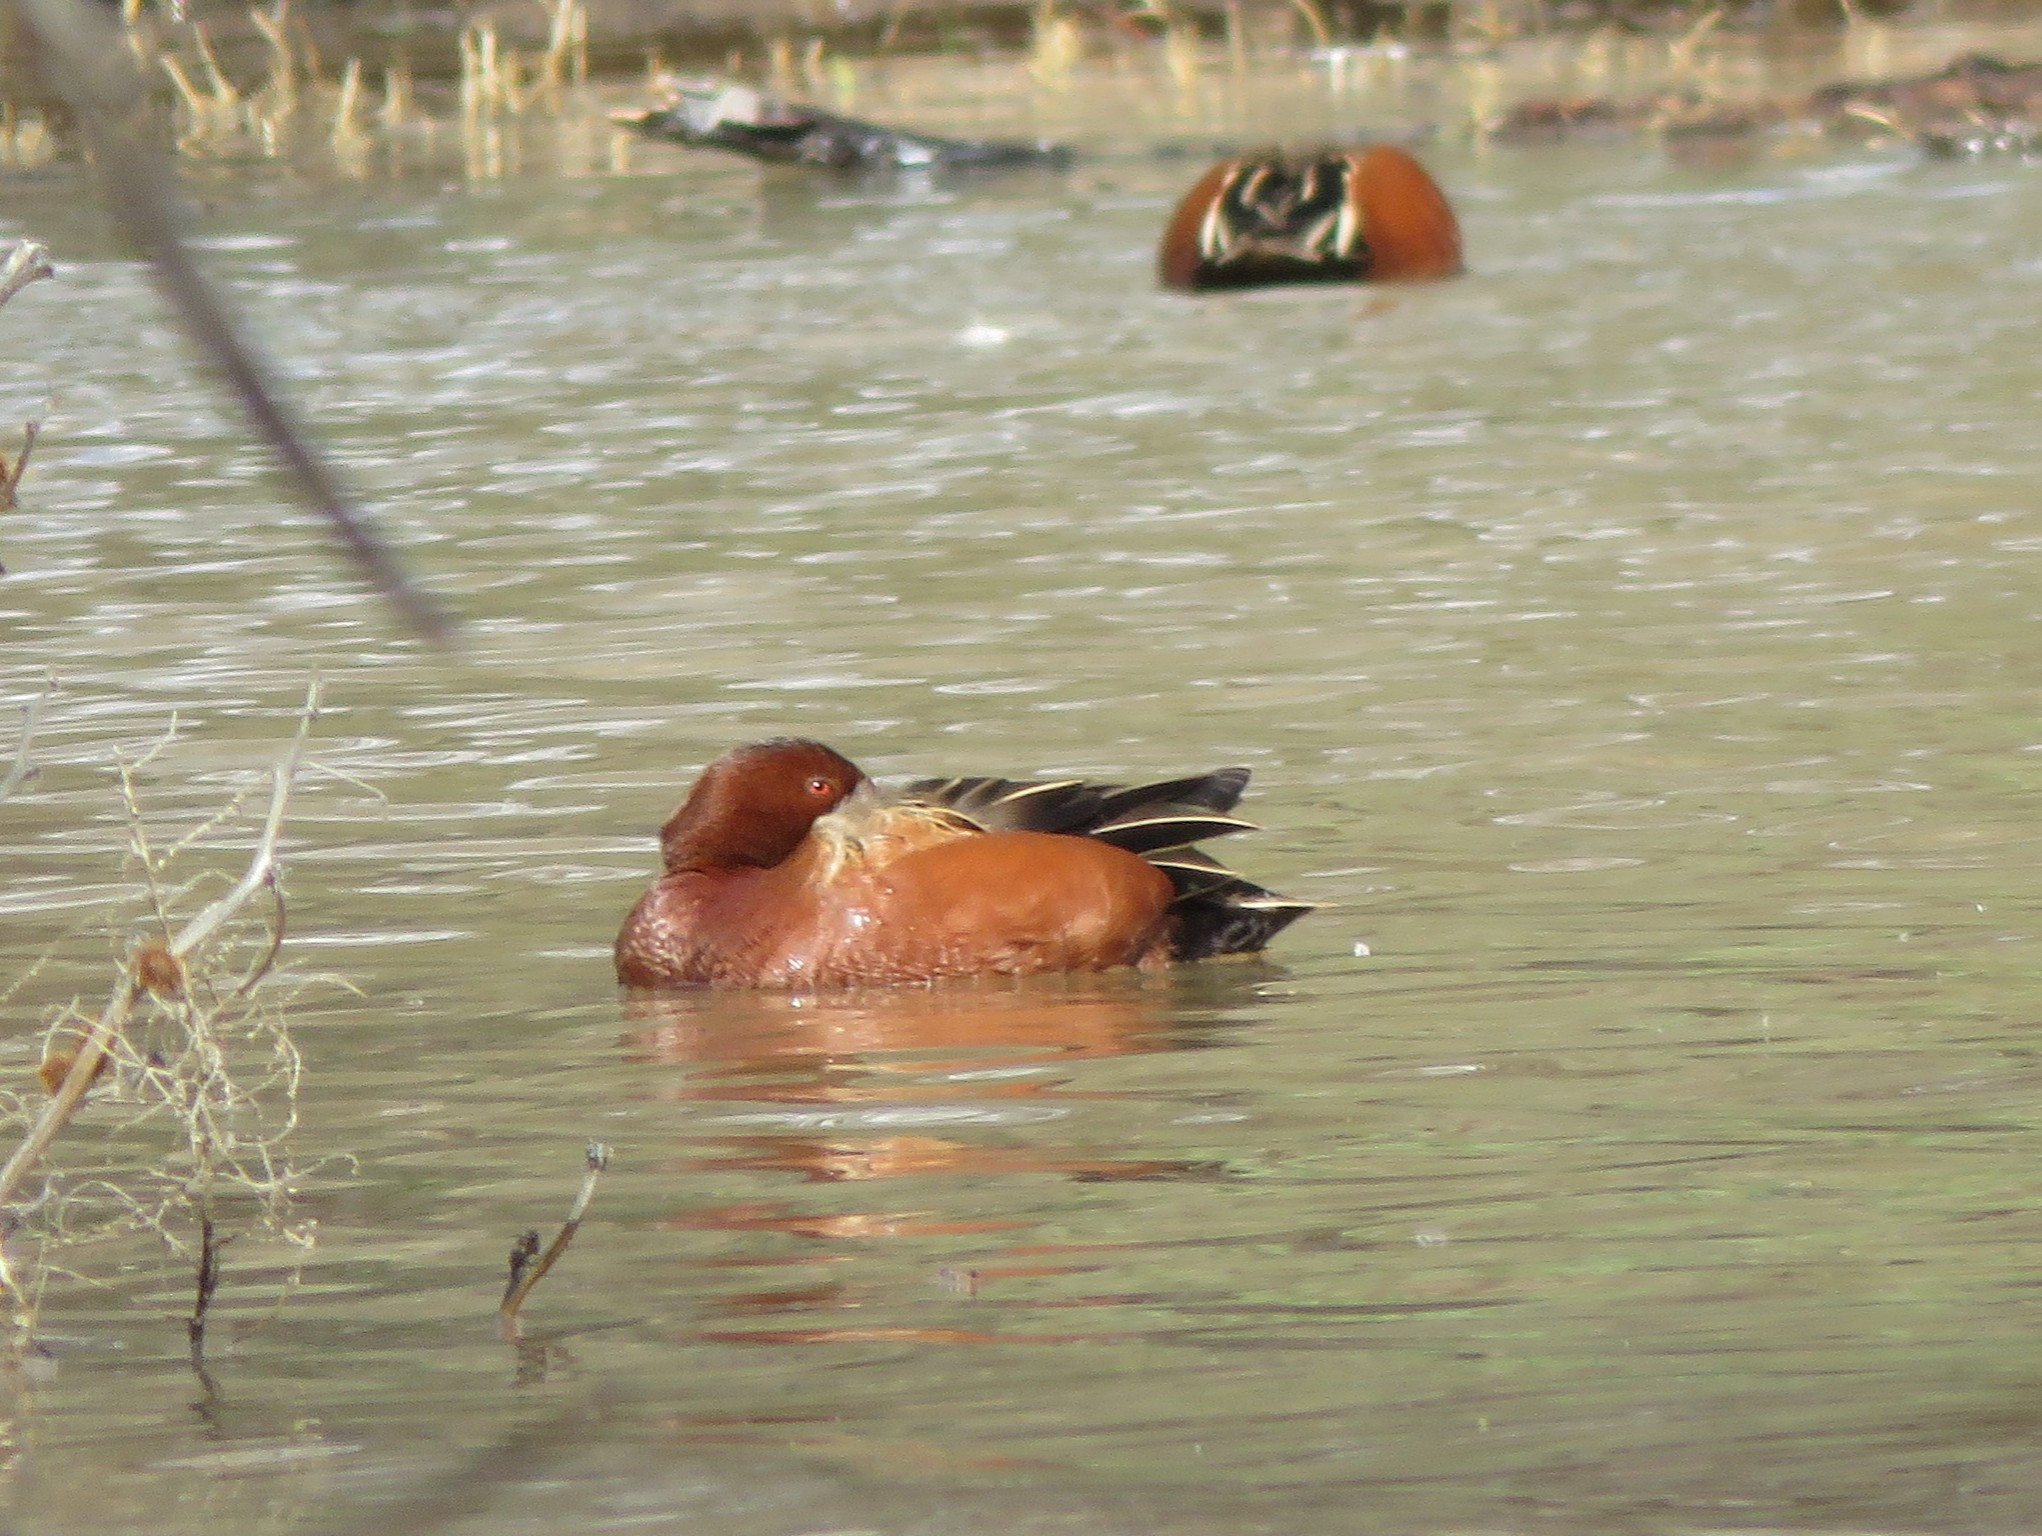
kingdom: Animalia
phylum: Chordata
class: Aves
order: Anseriformes
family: Anatidae
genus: Spatula
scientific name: Spatula cyanoptera
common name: Cinnamon teal
